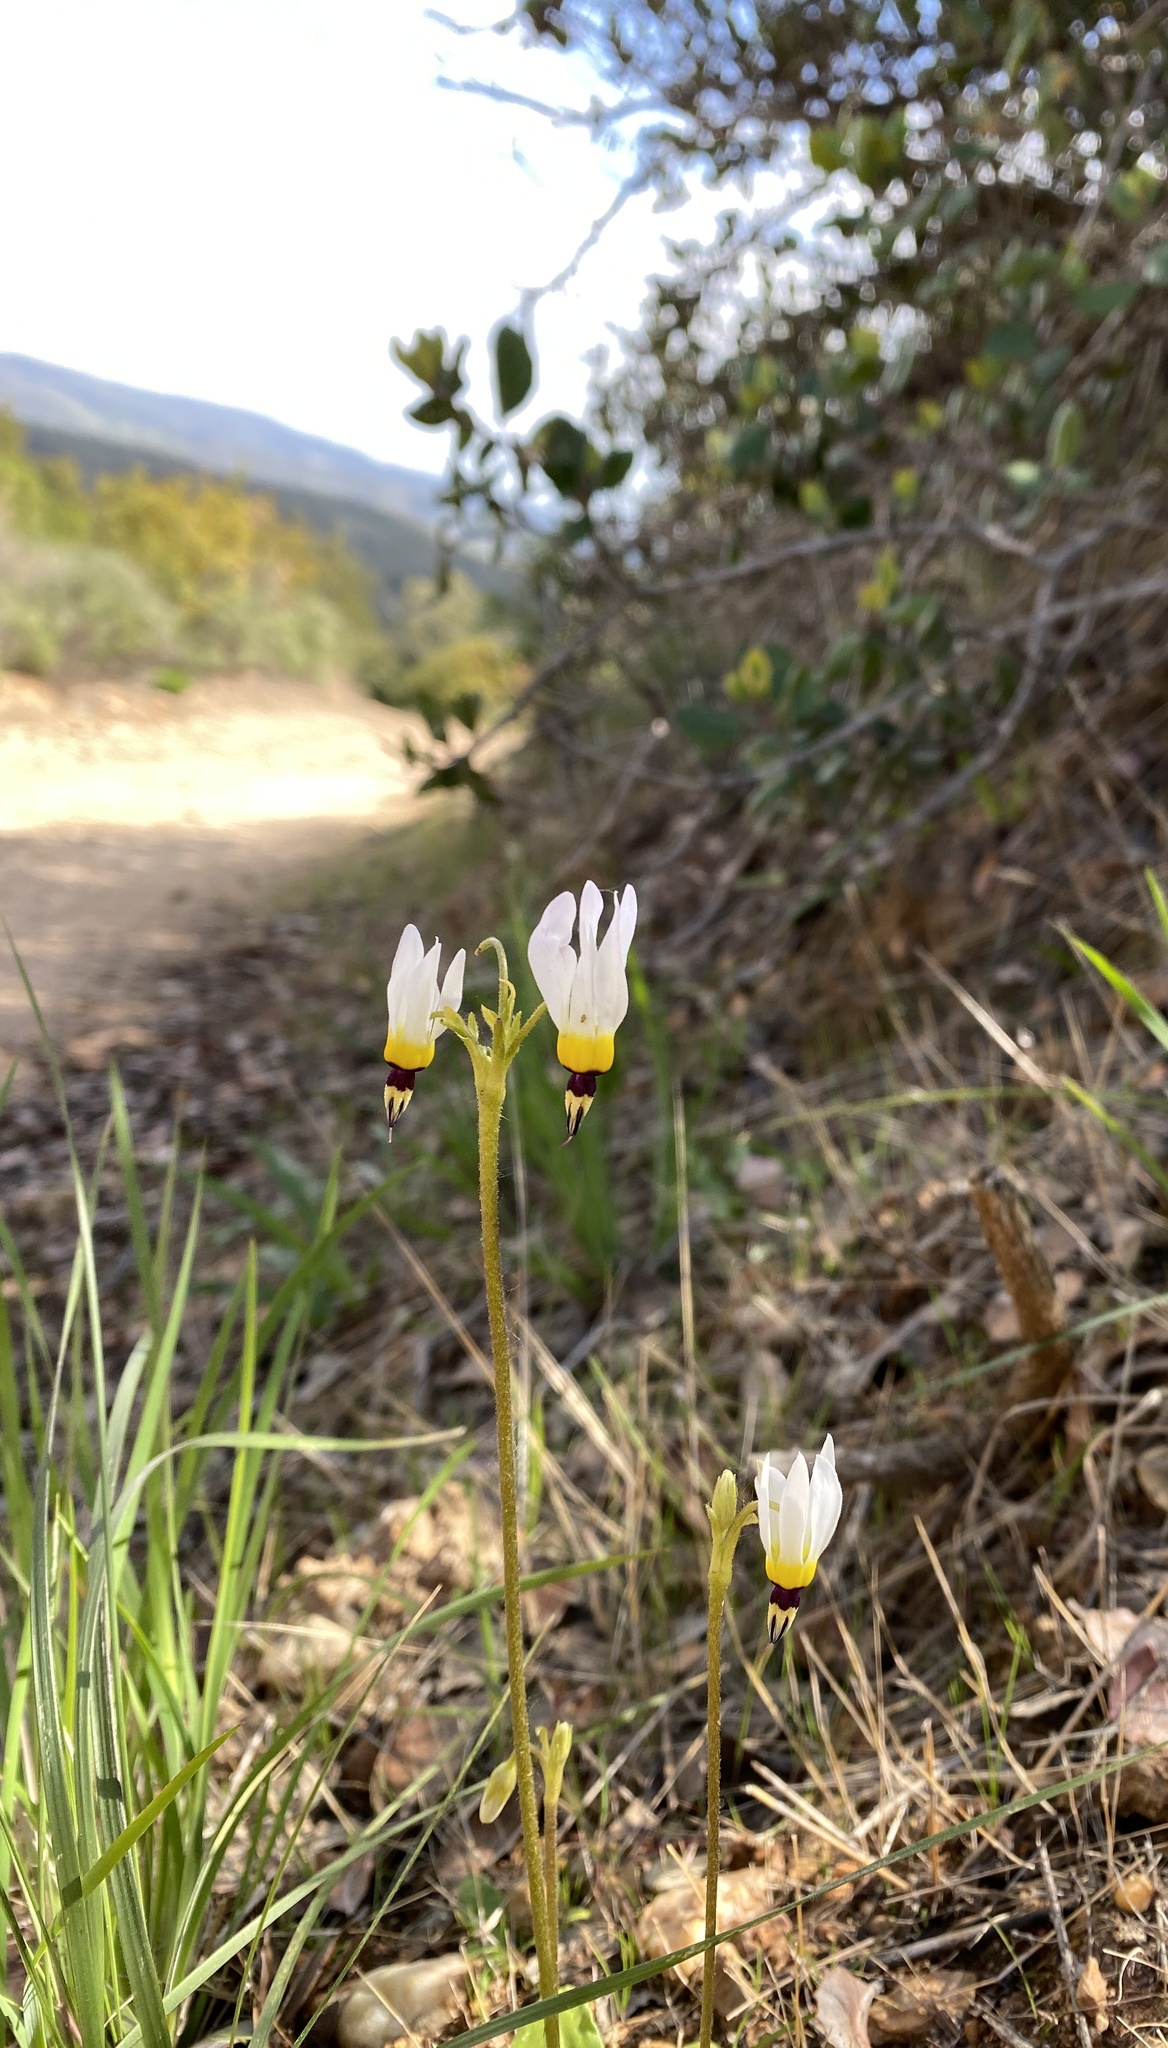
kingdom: Plantae
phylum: Tracheophyta
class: Magnoliopsida
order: Ericales
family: Primulaceae
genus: Dodecatheon
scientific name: Dodecatheon clevelandii
